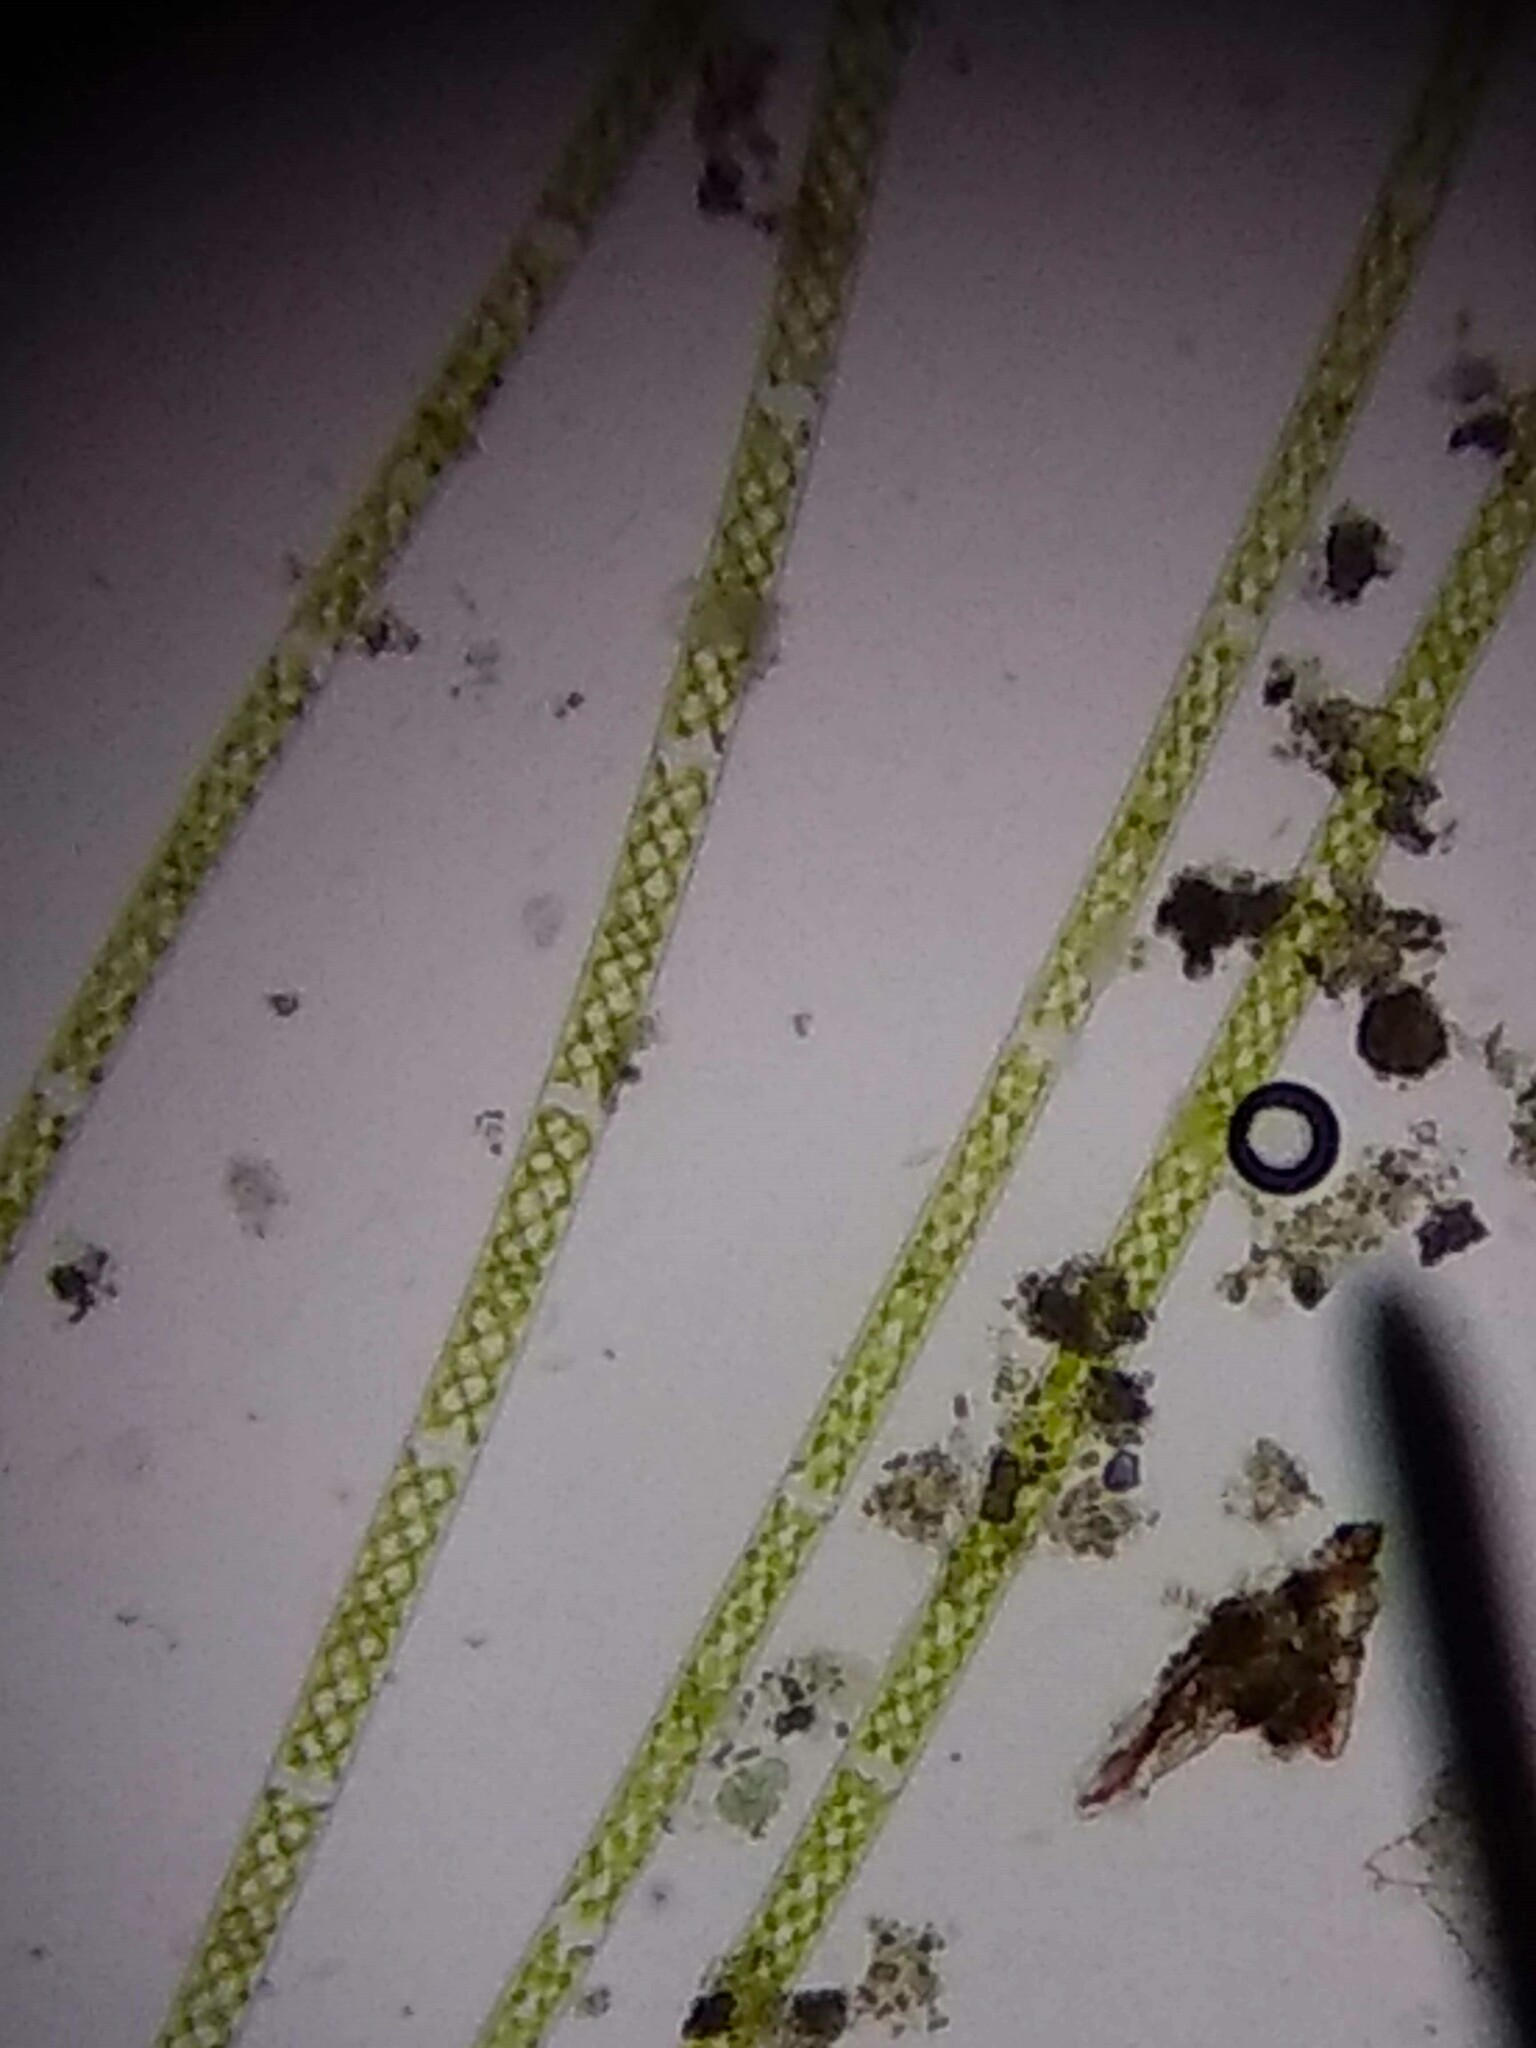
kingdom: Plantae
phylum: Charophyta
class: Zygnematophyceae
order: Zygnematales
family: Zygnemataceae
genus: Spirogyra
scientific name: Spirogyra
